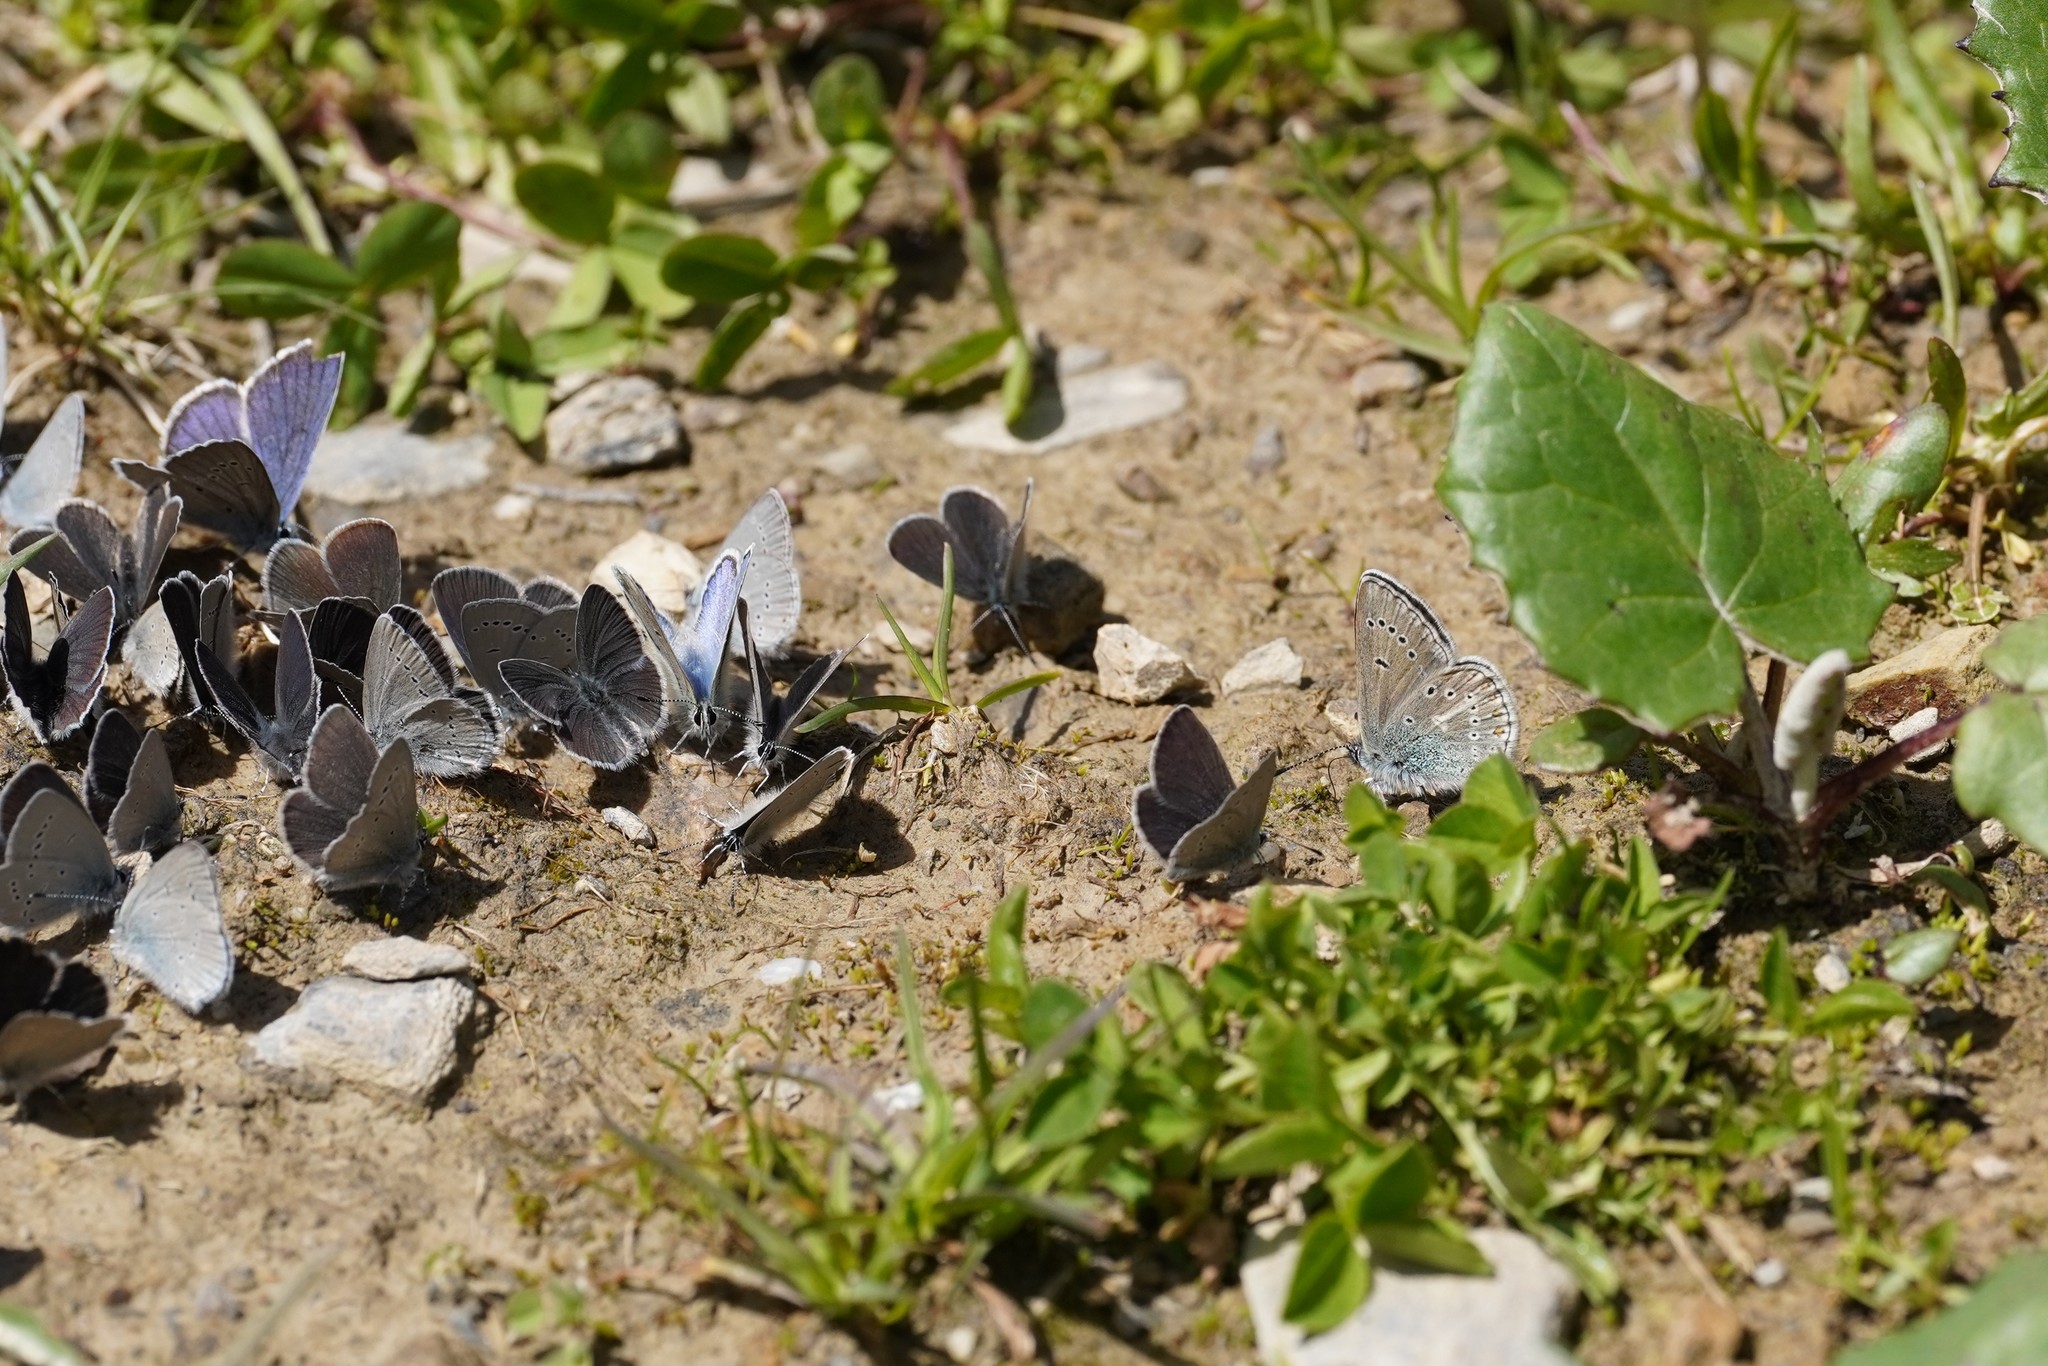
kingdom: Animalia
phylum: Arthropoda
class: Insecta
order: Lepidoptera
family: Lycaenidae
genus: Eumedonia
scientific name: Eumedonia eumedon
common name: Geranium argus
